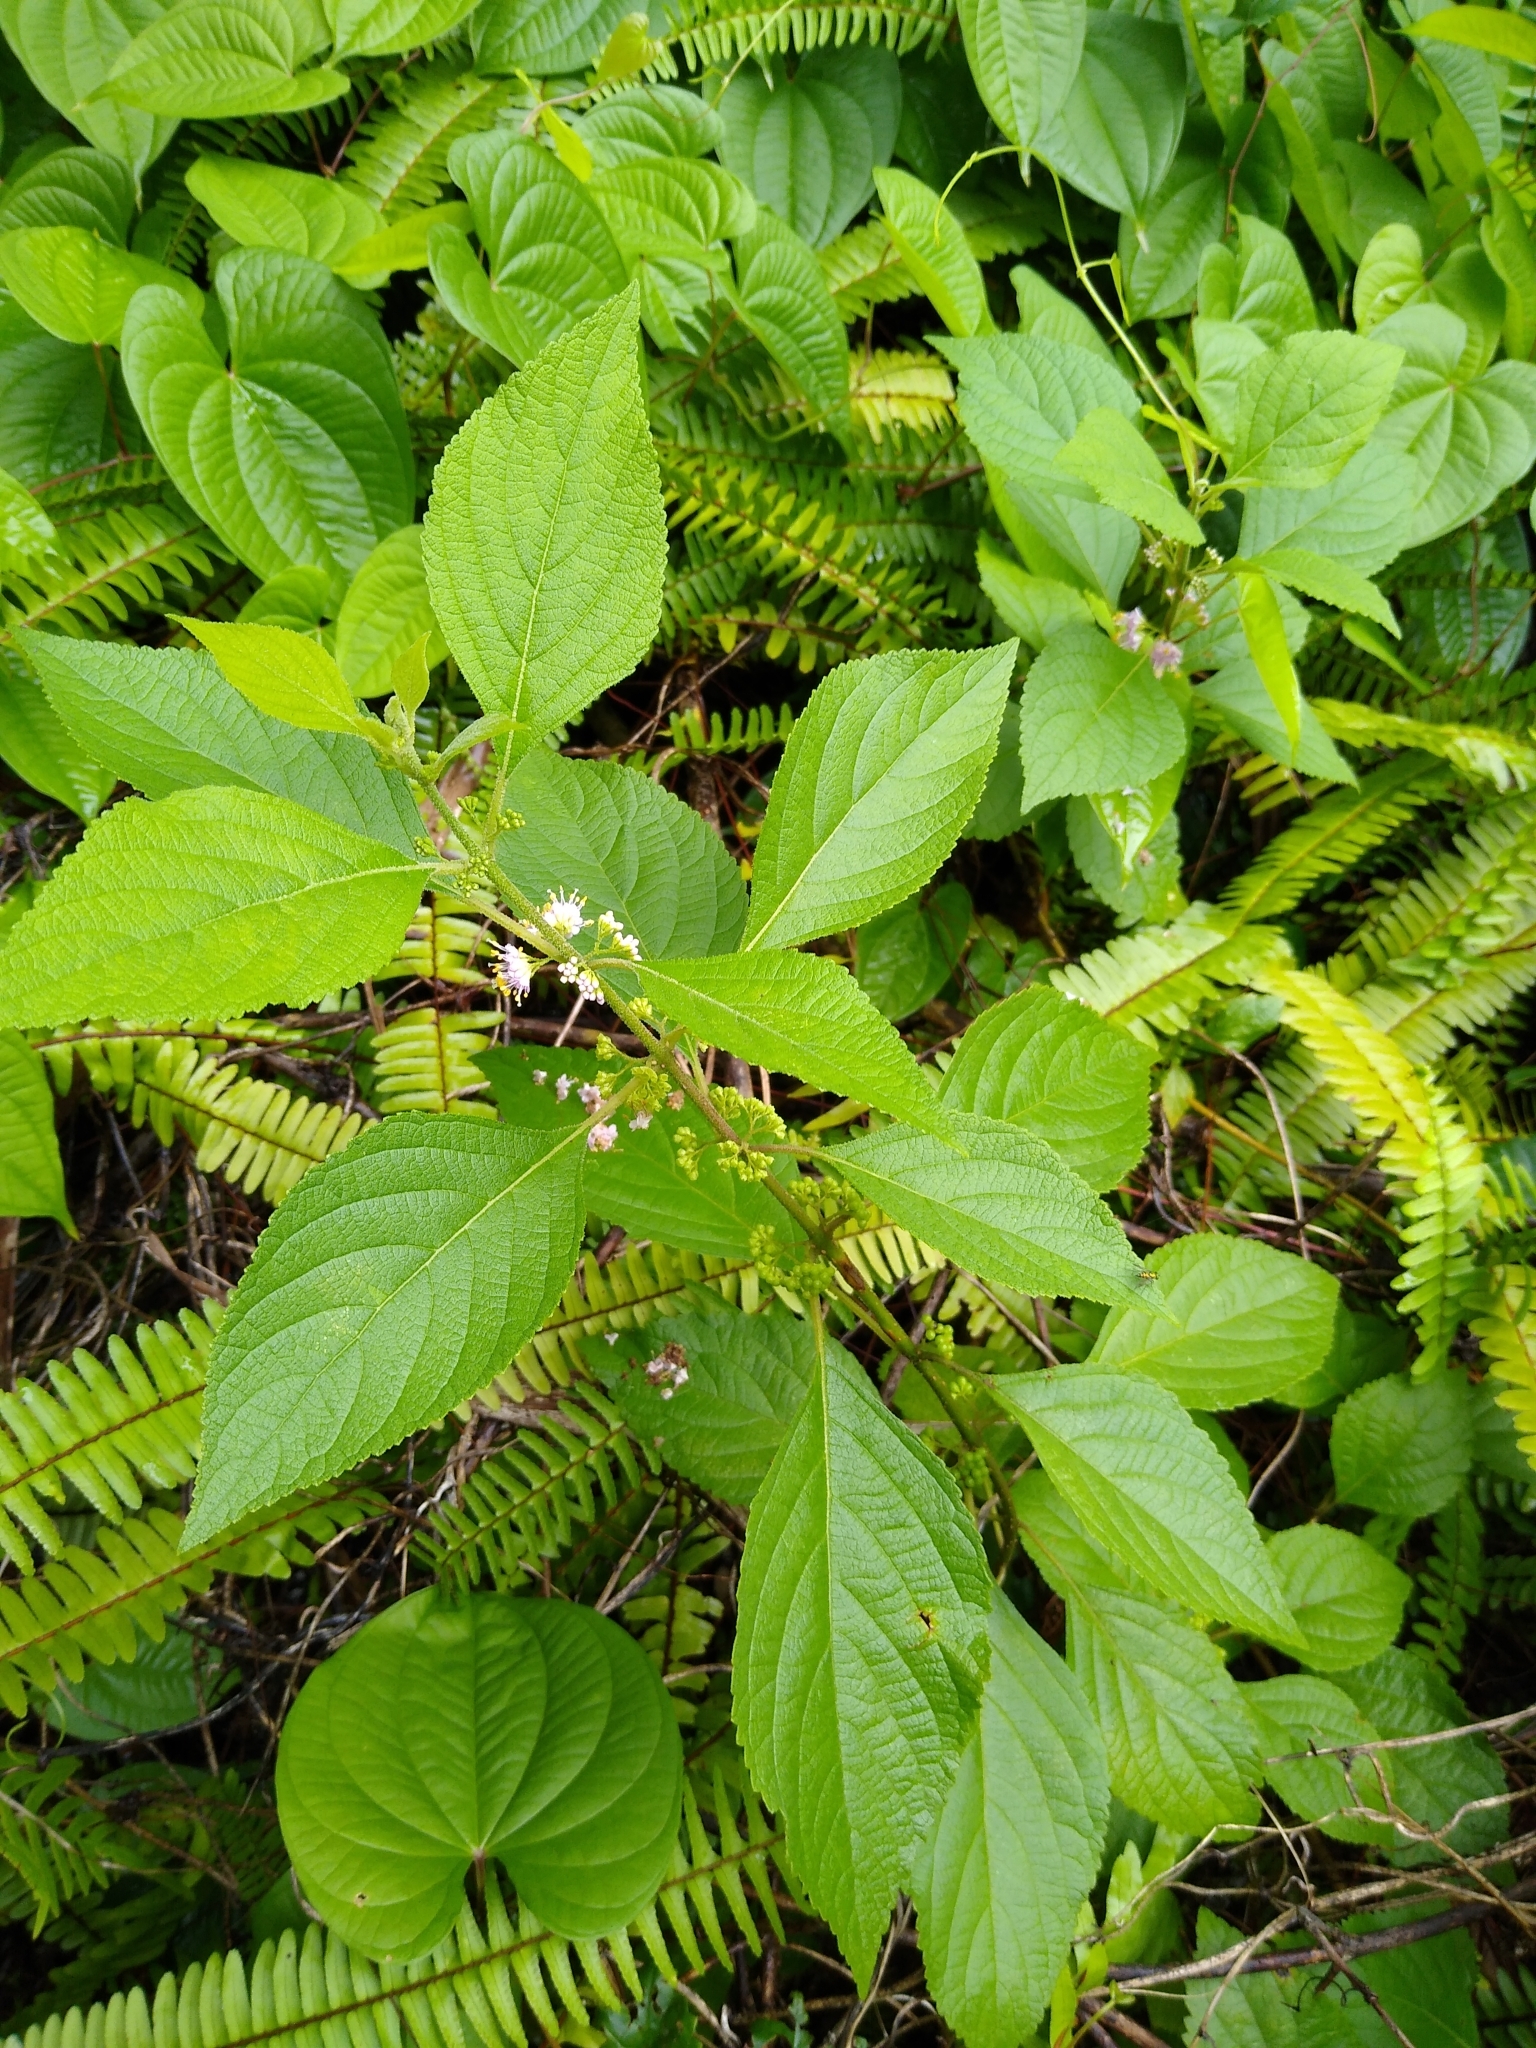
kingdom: Plantae
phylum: Tracheophyta
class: Magnoliopsida
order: Lamiales
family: Lamiaceae
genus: Callicarpa
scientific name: Callicarpa americana
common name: American beautyberry
